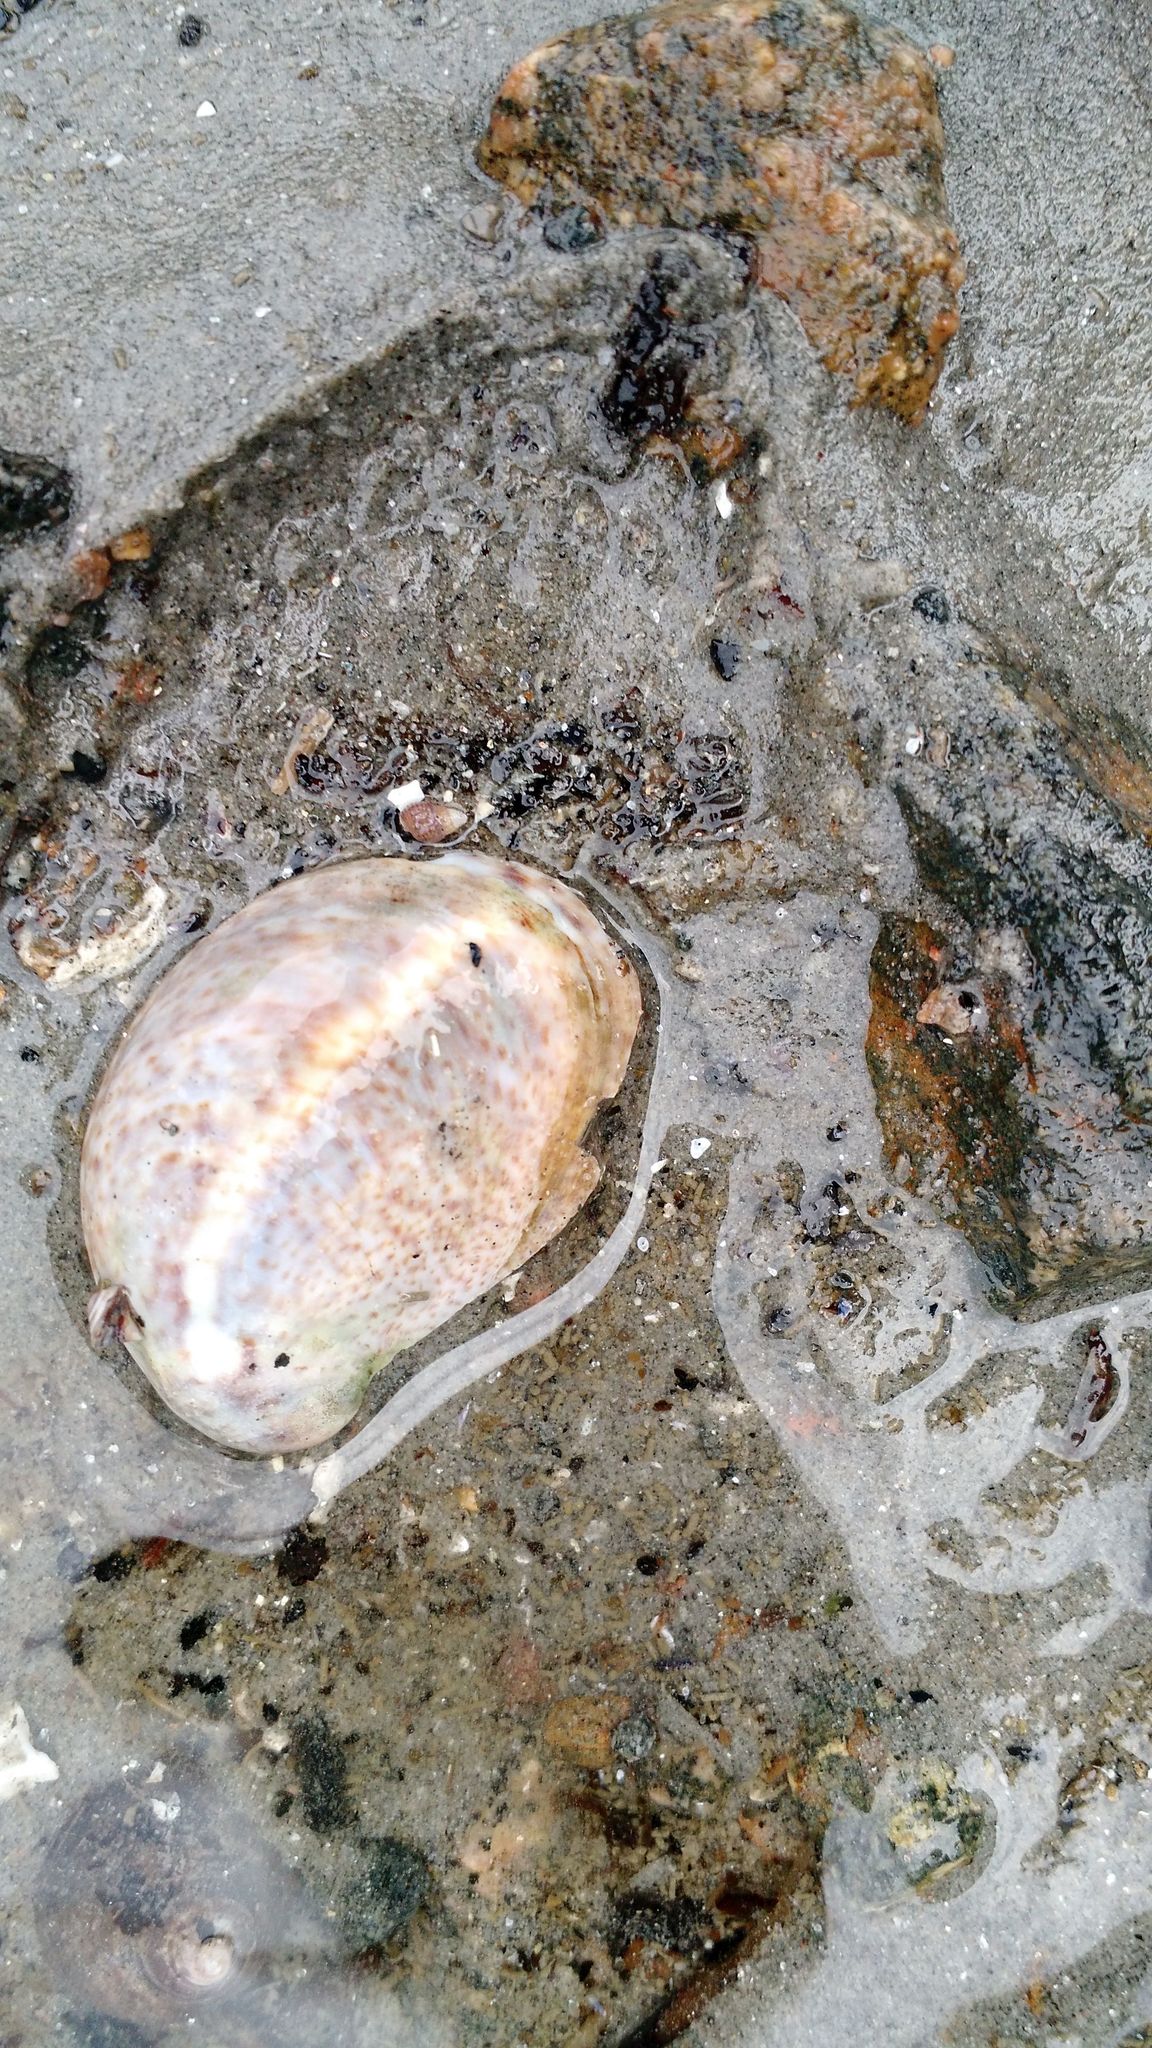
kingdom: Animalia
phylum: Mollusca
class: Gastropoda
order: Littorinimorpha
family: Calyptraeidae
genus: Crepidula
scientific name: Crepidula fornicata
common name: Slipper limpet
